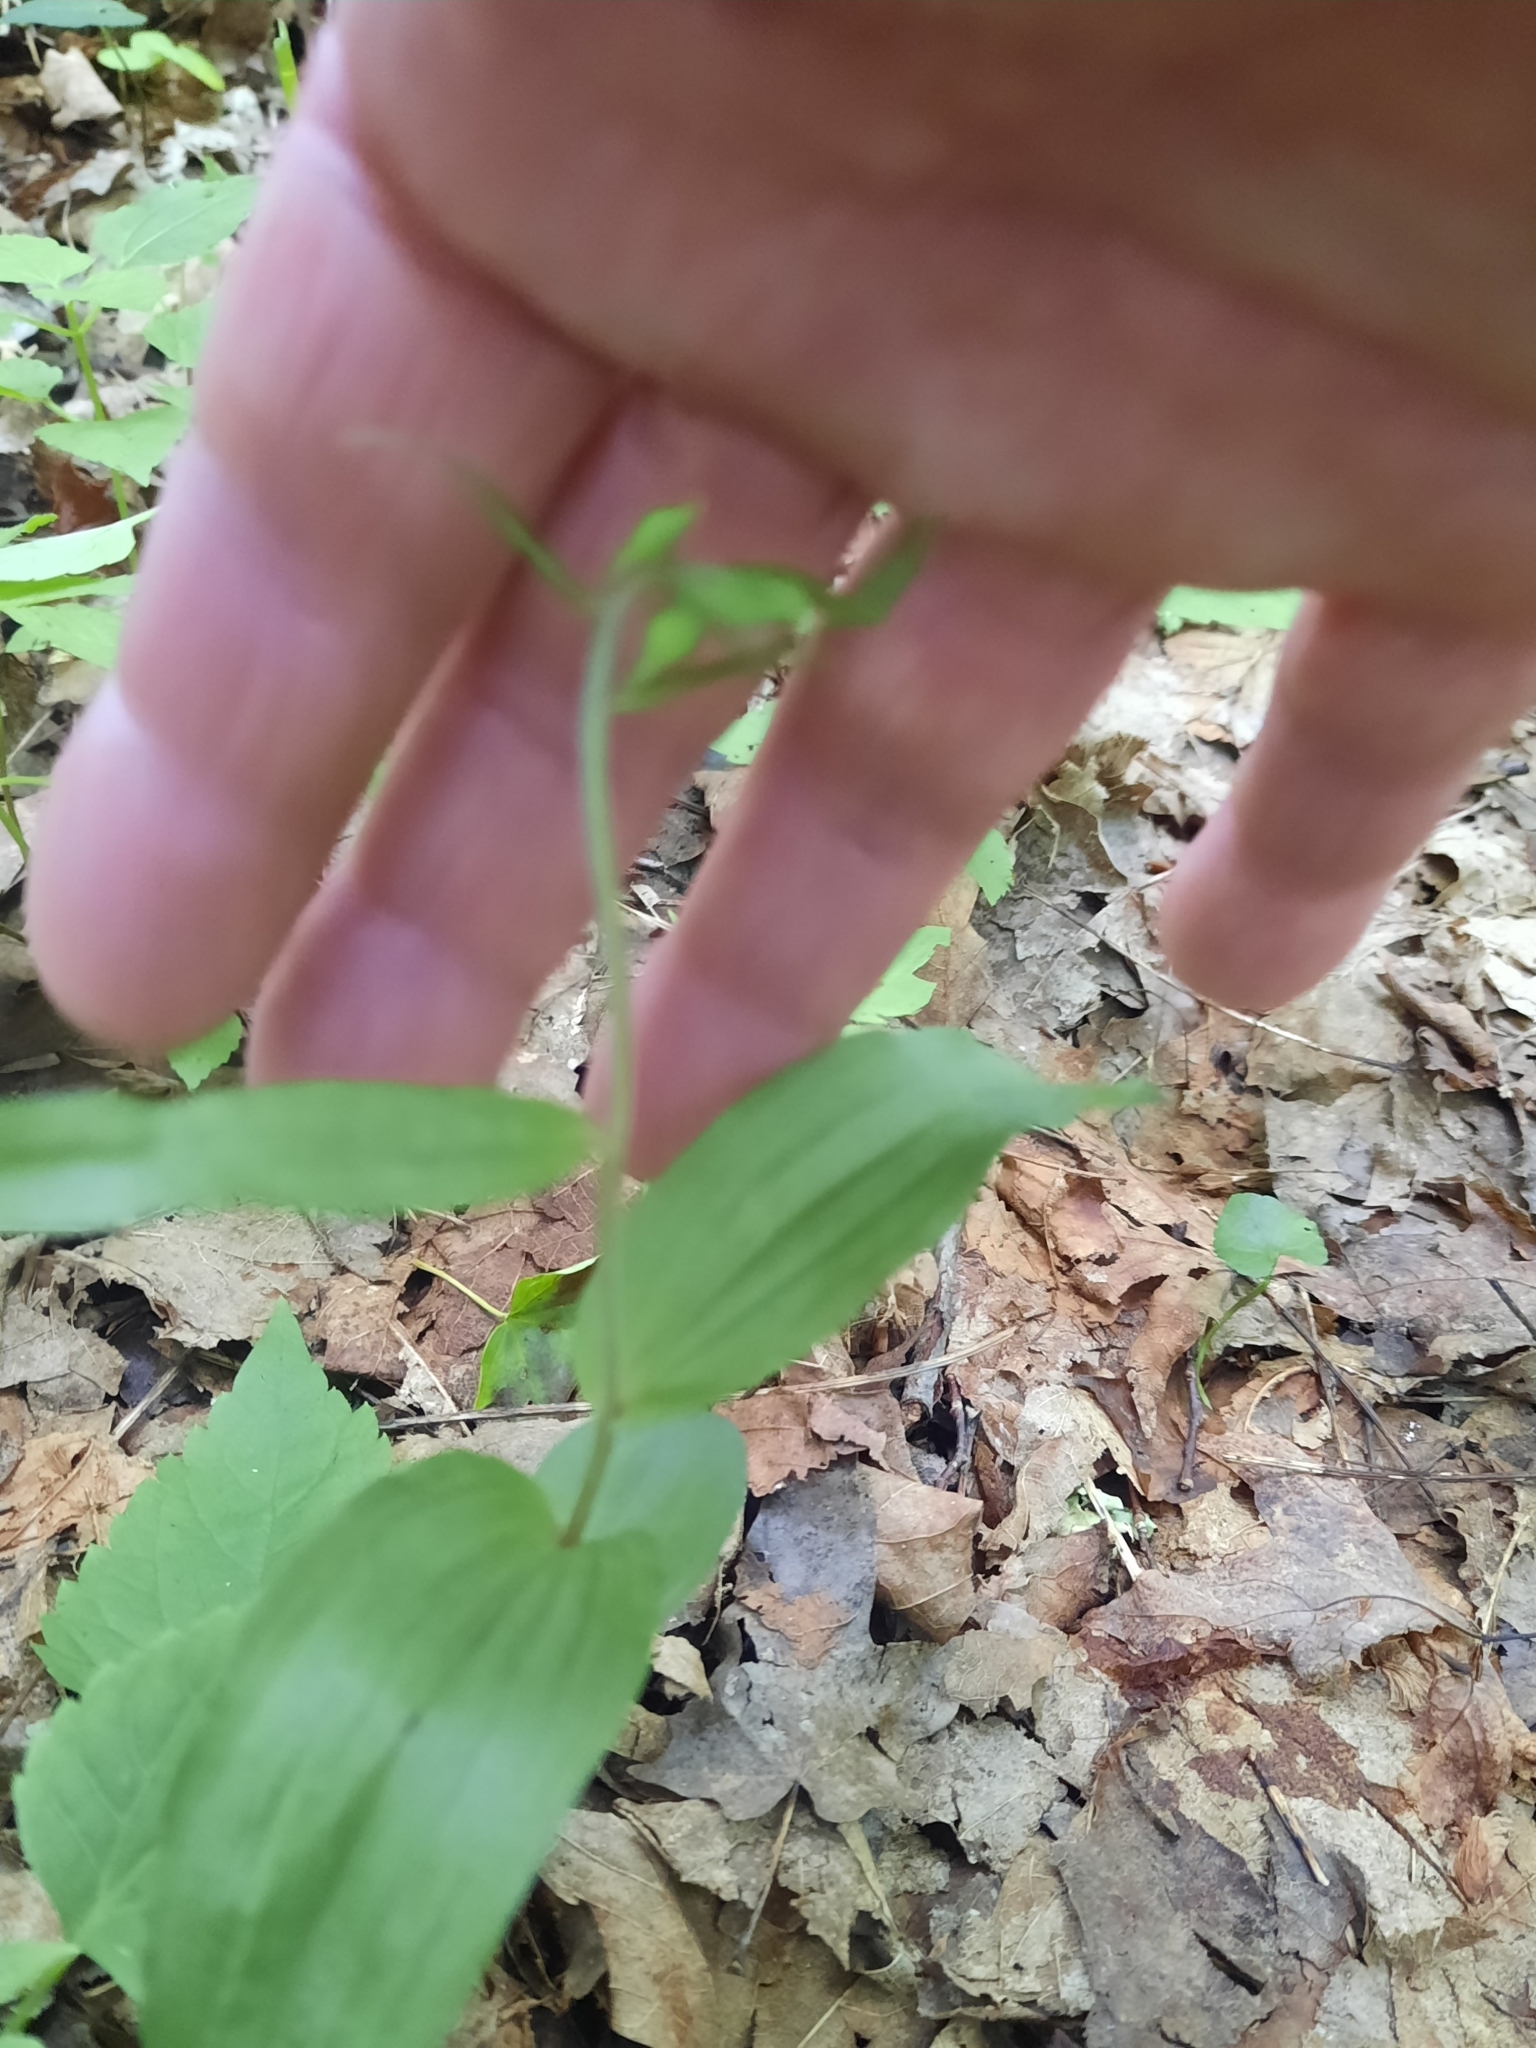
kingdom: Plantae
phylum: Tracheophyta
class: Liliopsida
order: Asparagales
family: Orchidaceae
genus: Epipactis
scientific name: Epipactis helleborine
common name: Broad-leaved helleborine
